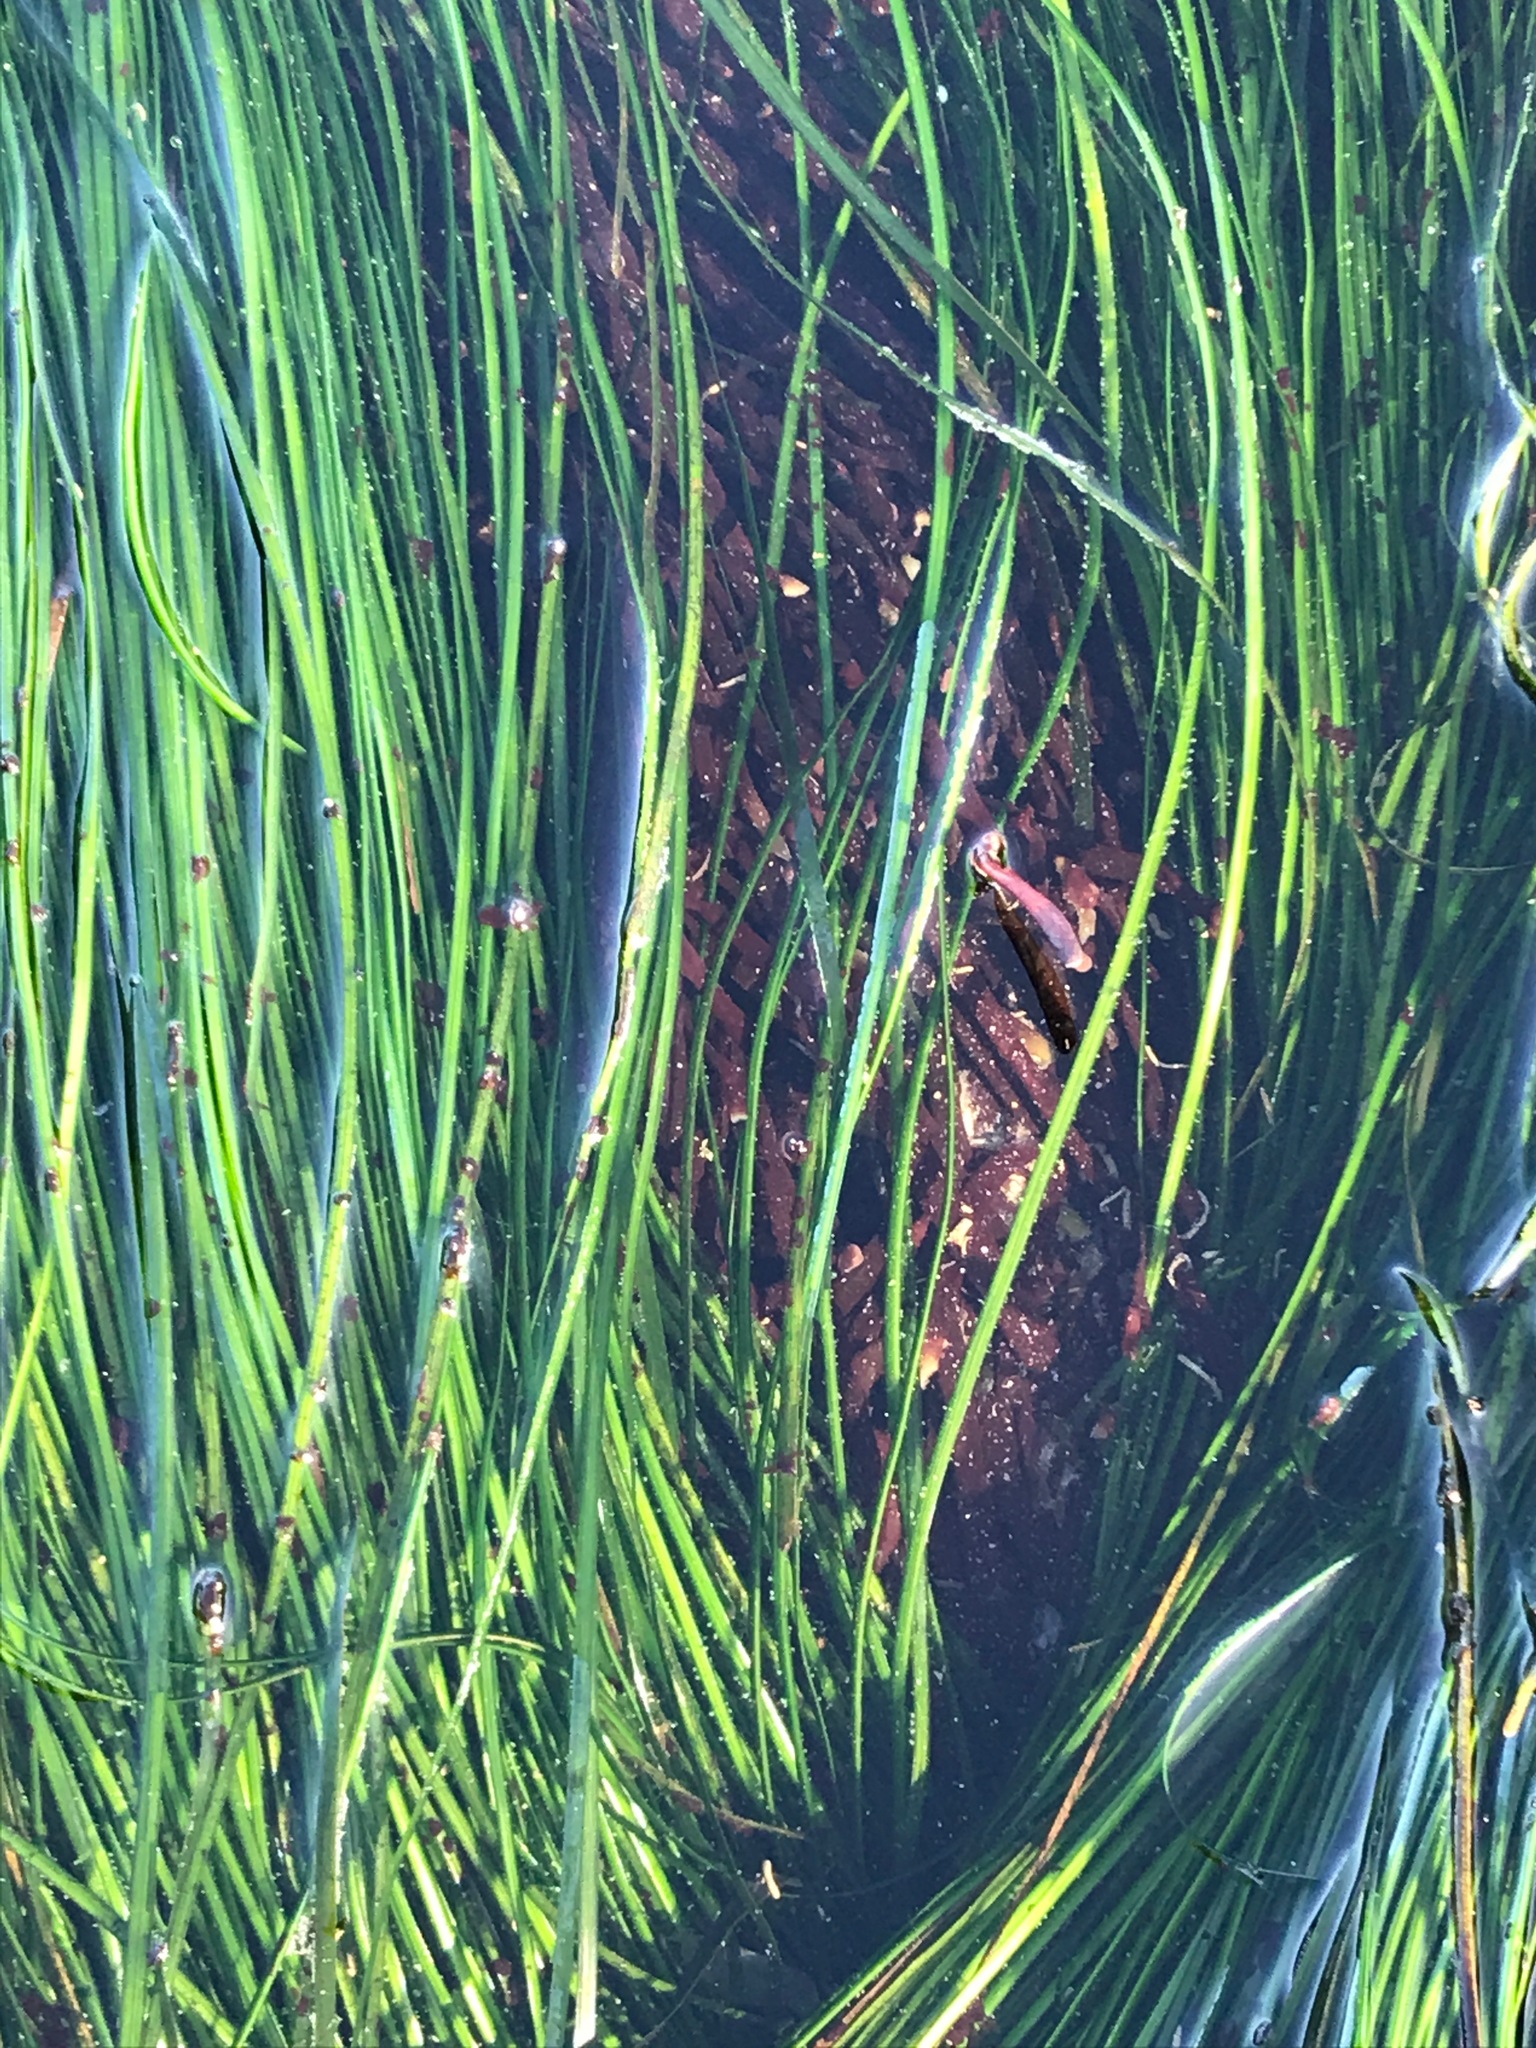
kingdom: Plantae
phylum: Tracheophyta
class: Liliopsida
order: Alismatales
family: Zosteraceae
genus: Phyllospadix
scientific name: Phyllospadix torreyi
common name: Surfgrass
